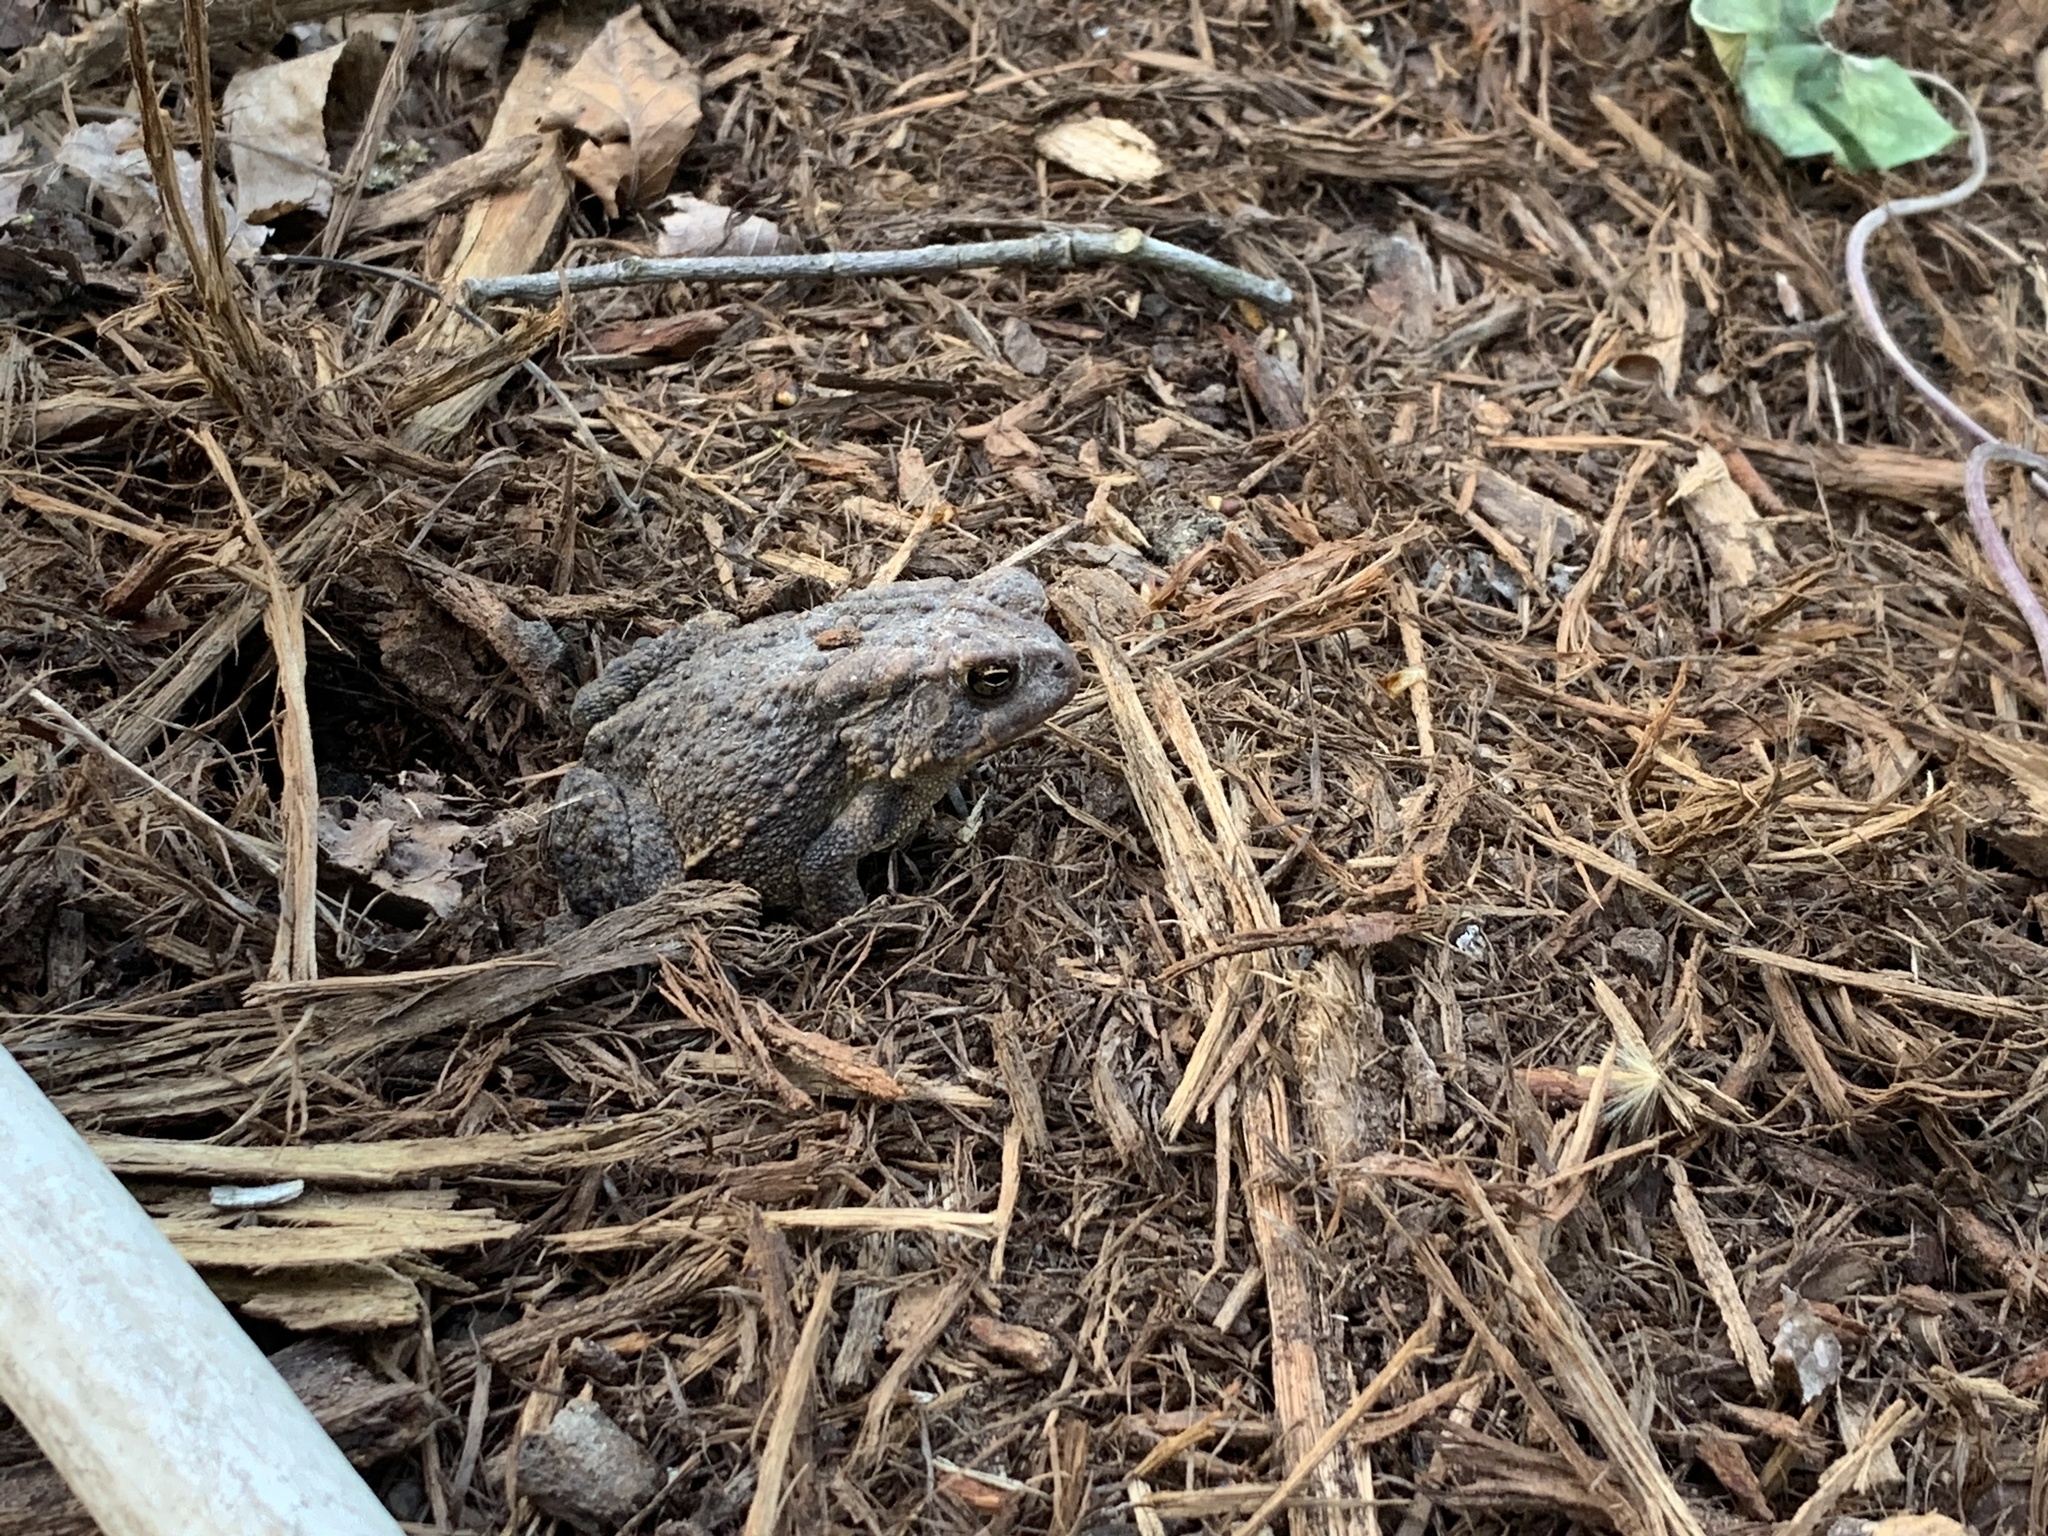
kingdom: Animalia
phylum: Chordata
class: Amphibia
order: Anura
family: Bufonidae
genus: Anaxyrus
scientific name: Anaxyrus americanus
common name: American toad
